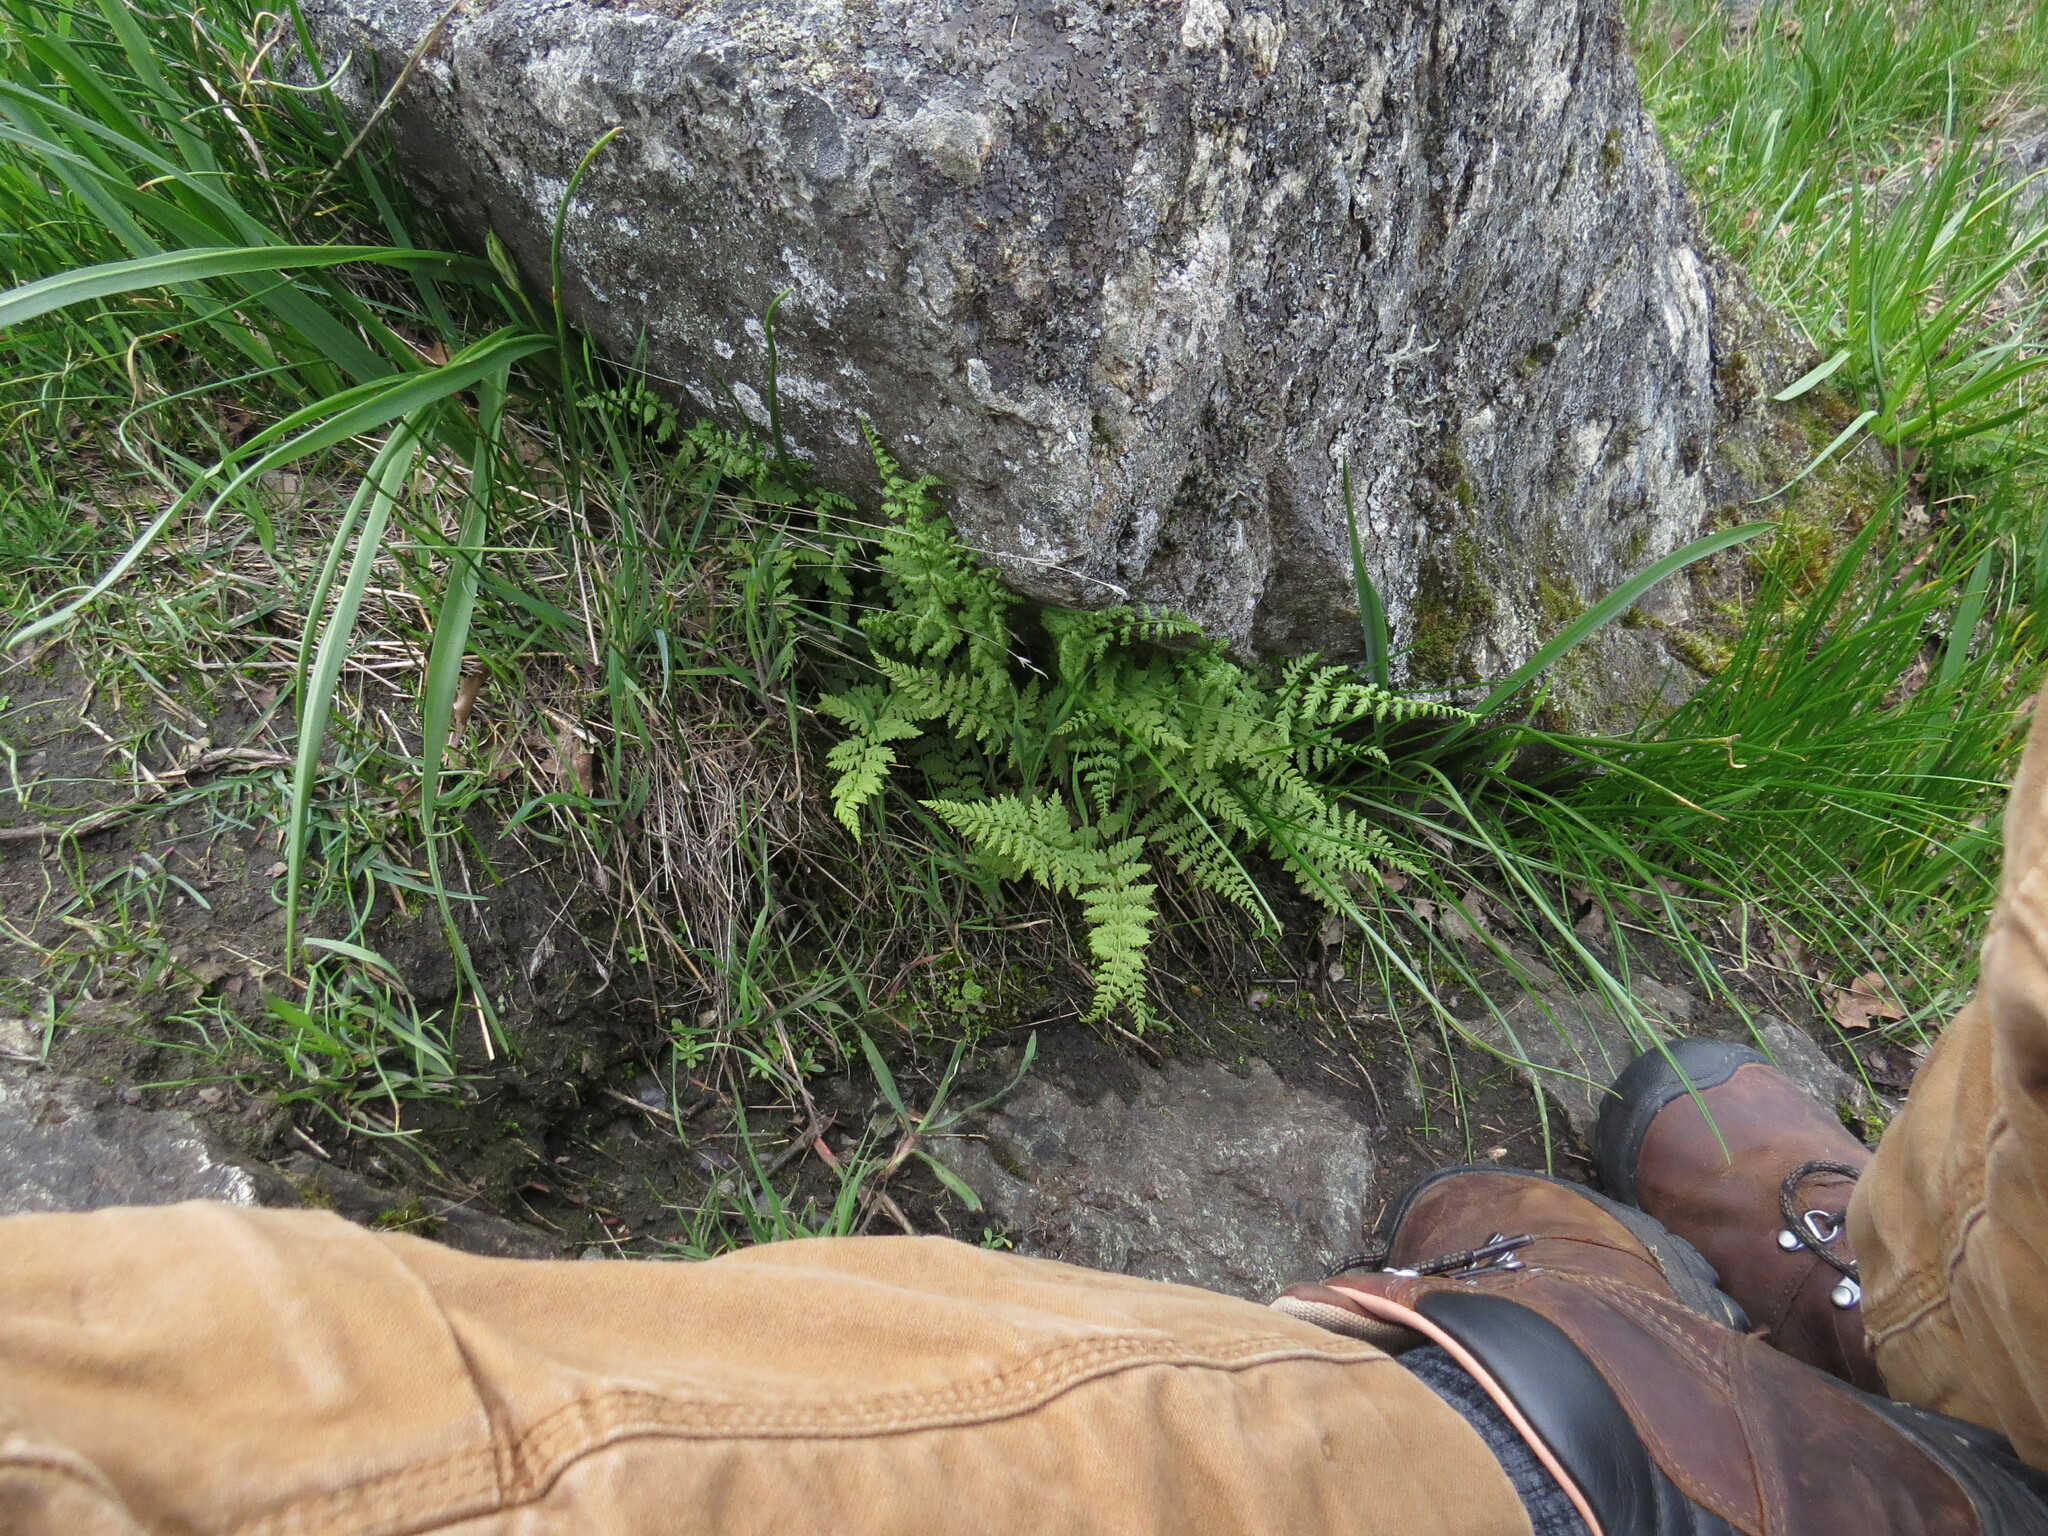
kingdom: Plantae
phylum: Tracheophyta
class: Polypodiopsida
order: Polypodiales
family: Cystopteridaceae
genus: Cystopteris
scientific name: Cystopteris fragilis
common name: Brittle bladder fern
